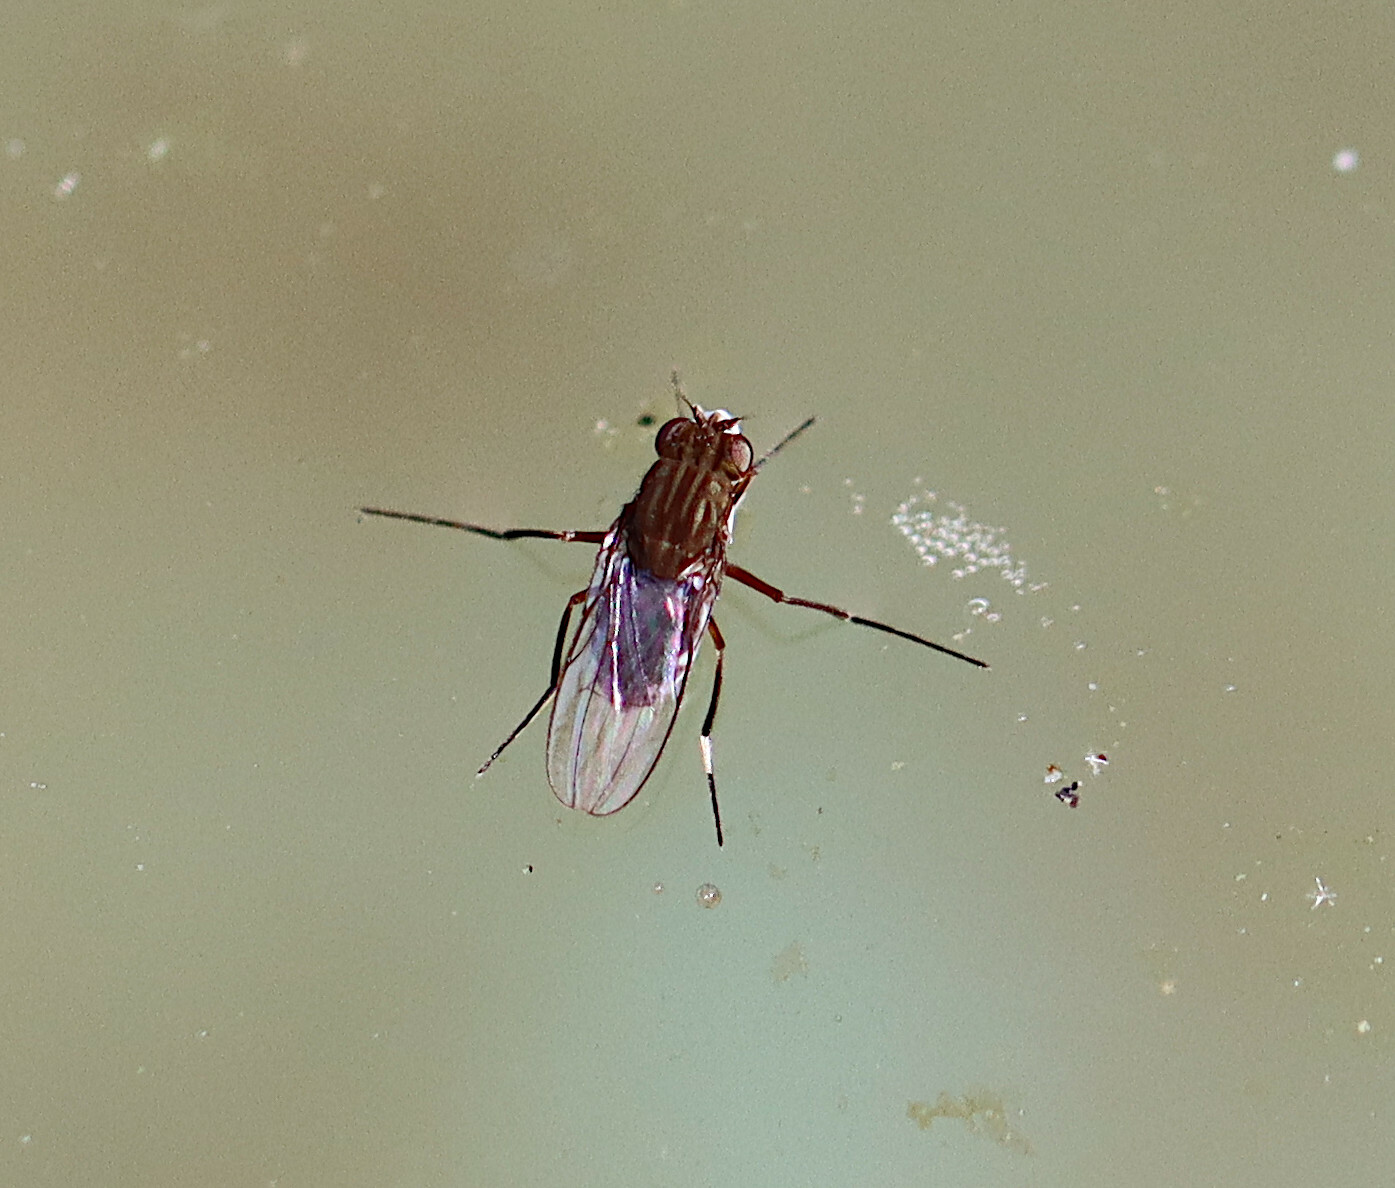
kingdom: Animalia
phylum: Arthropoda
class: Insecta
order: Diptera
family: Ephydridae
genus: Brachydeutera
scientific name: Brachydeutera sturtevanti
